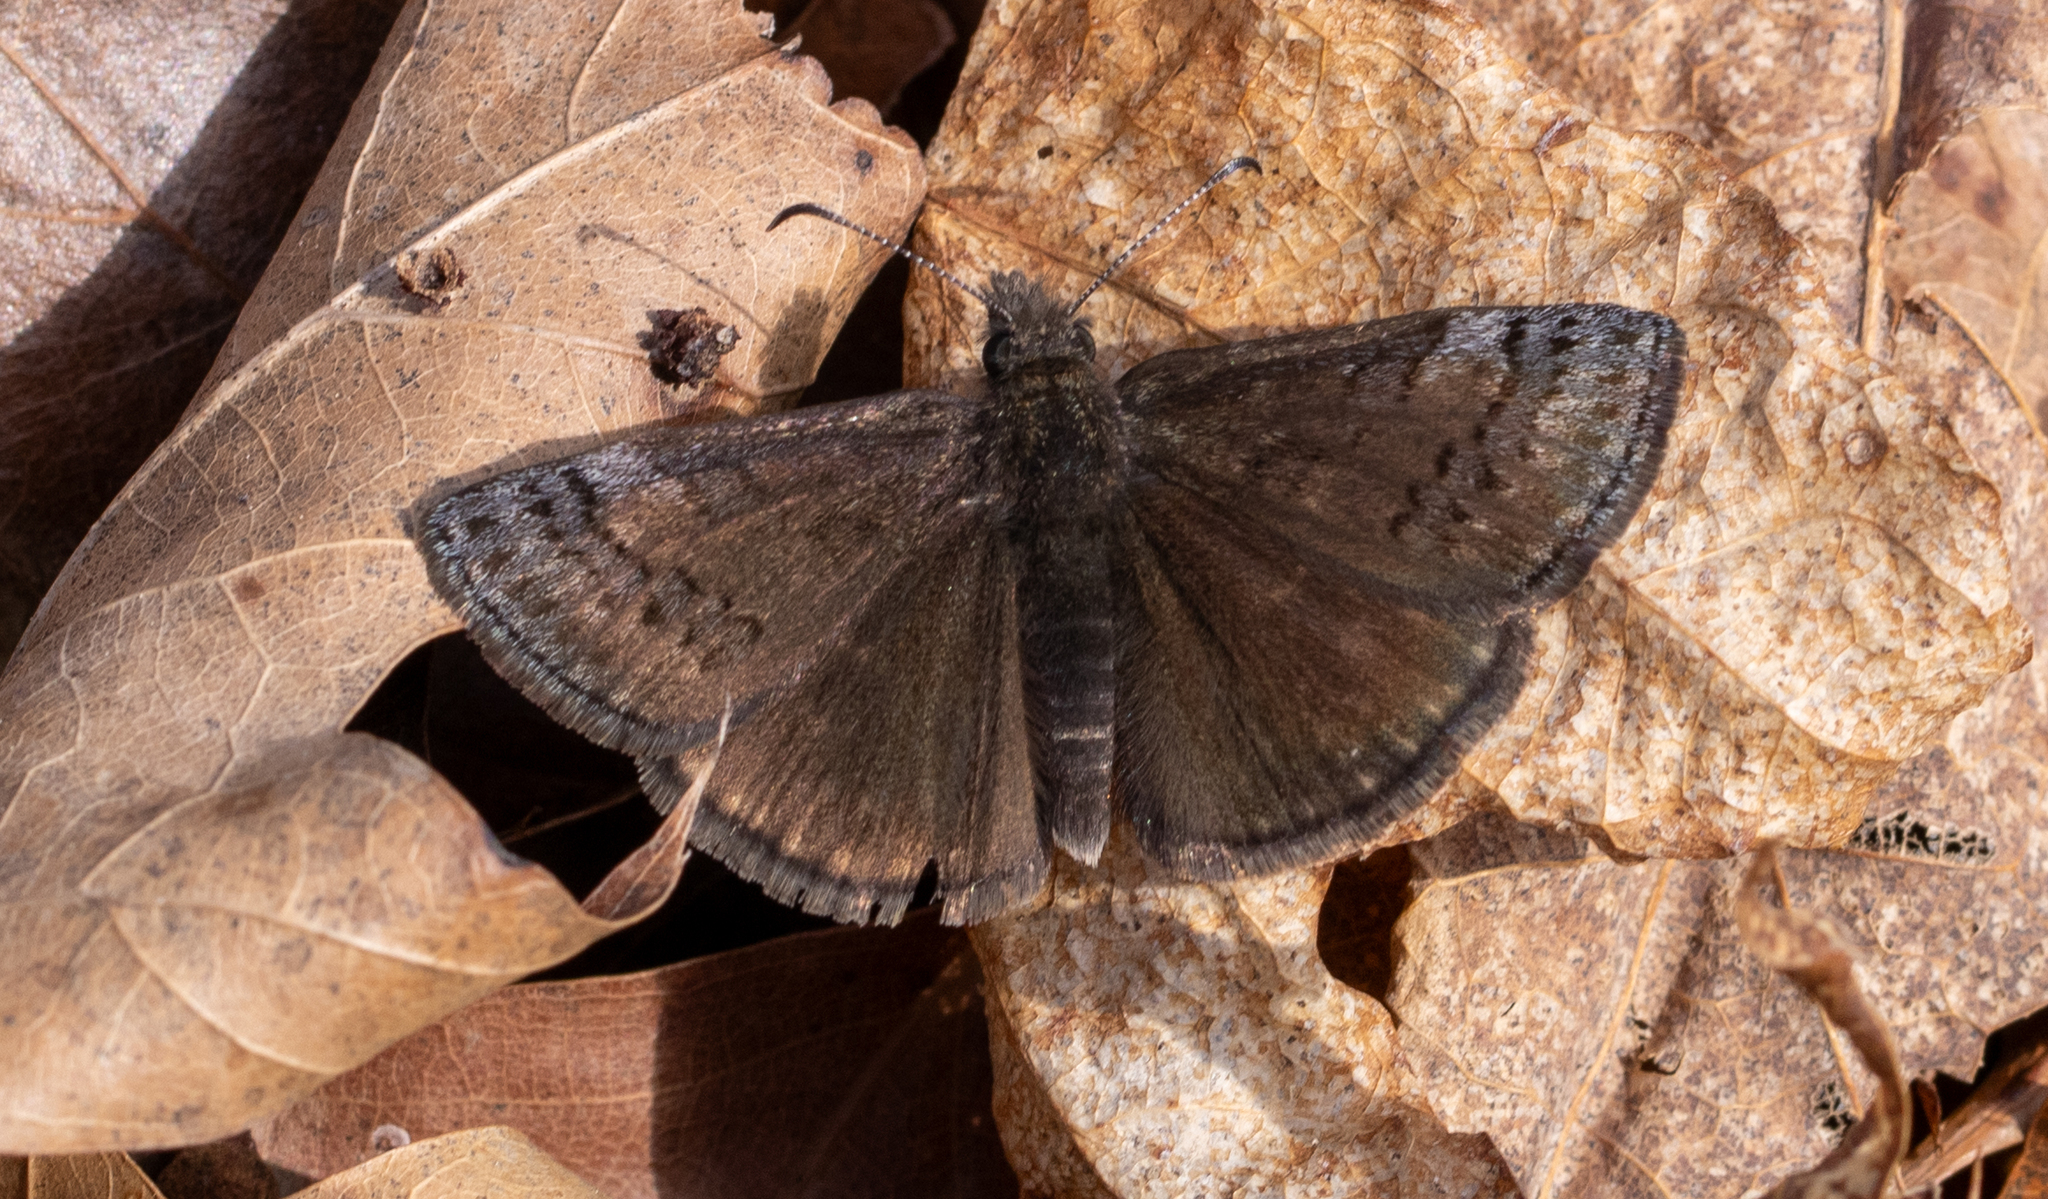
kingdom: Animalia
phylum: Arthropoda
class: Insecta
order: Lepidoptera
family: Hesperiidae
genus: Erynnis
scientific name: Erynnis brizo
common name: Sleepy duskywing
